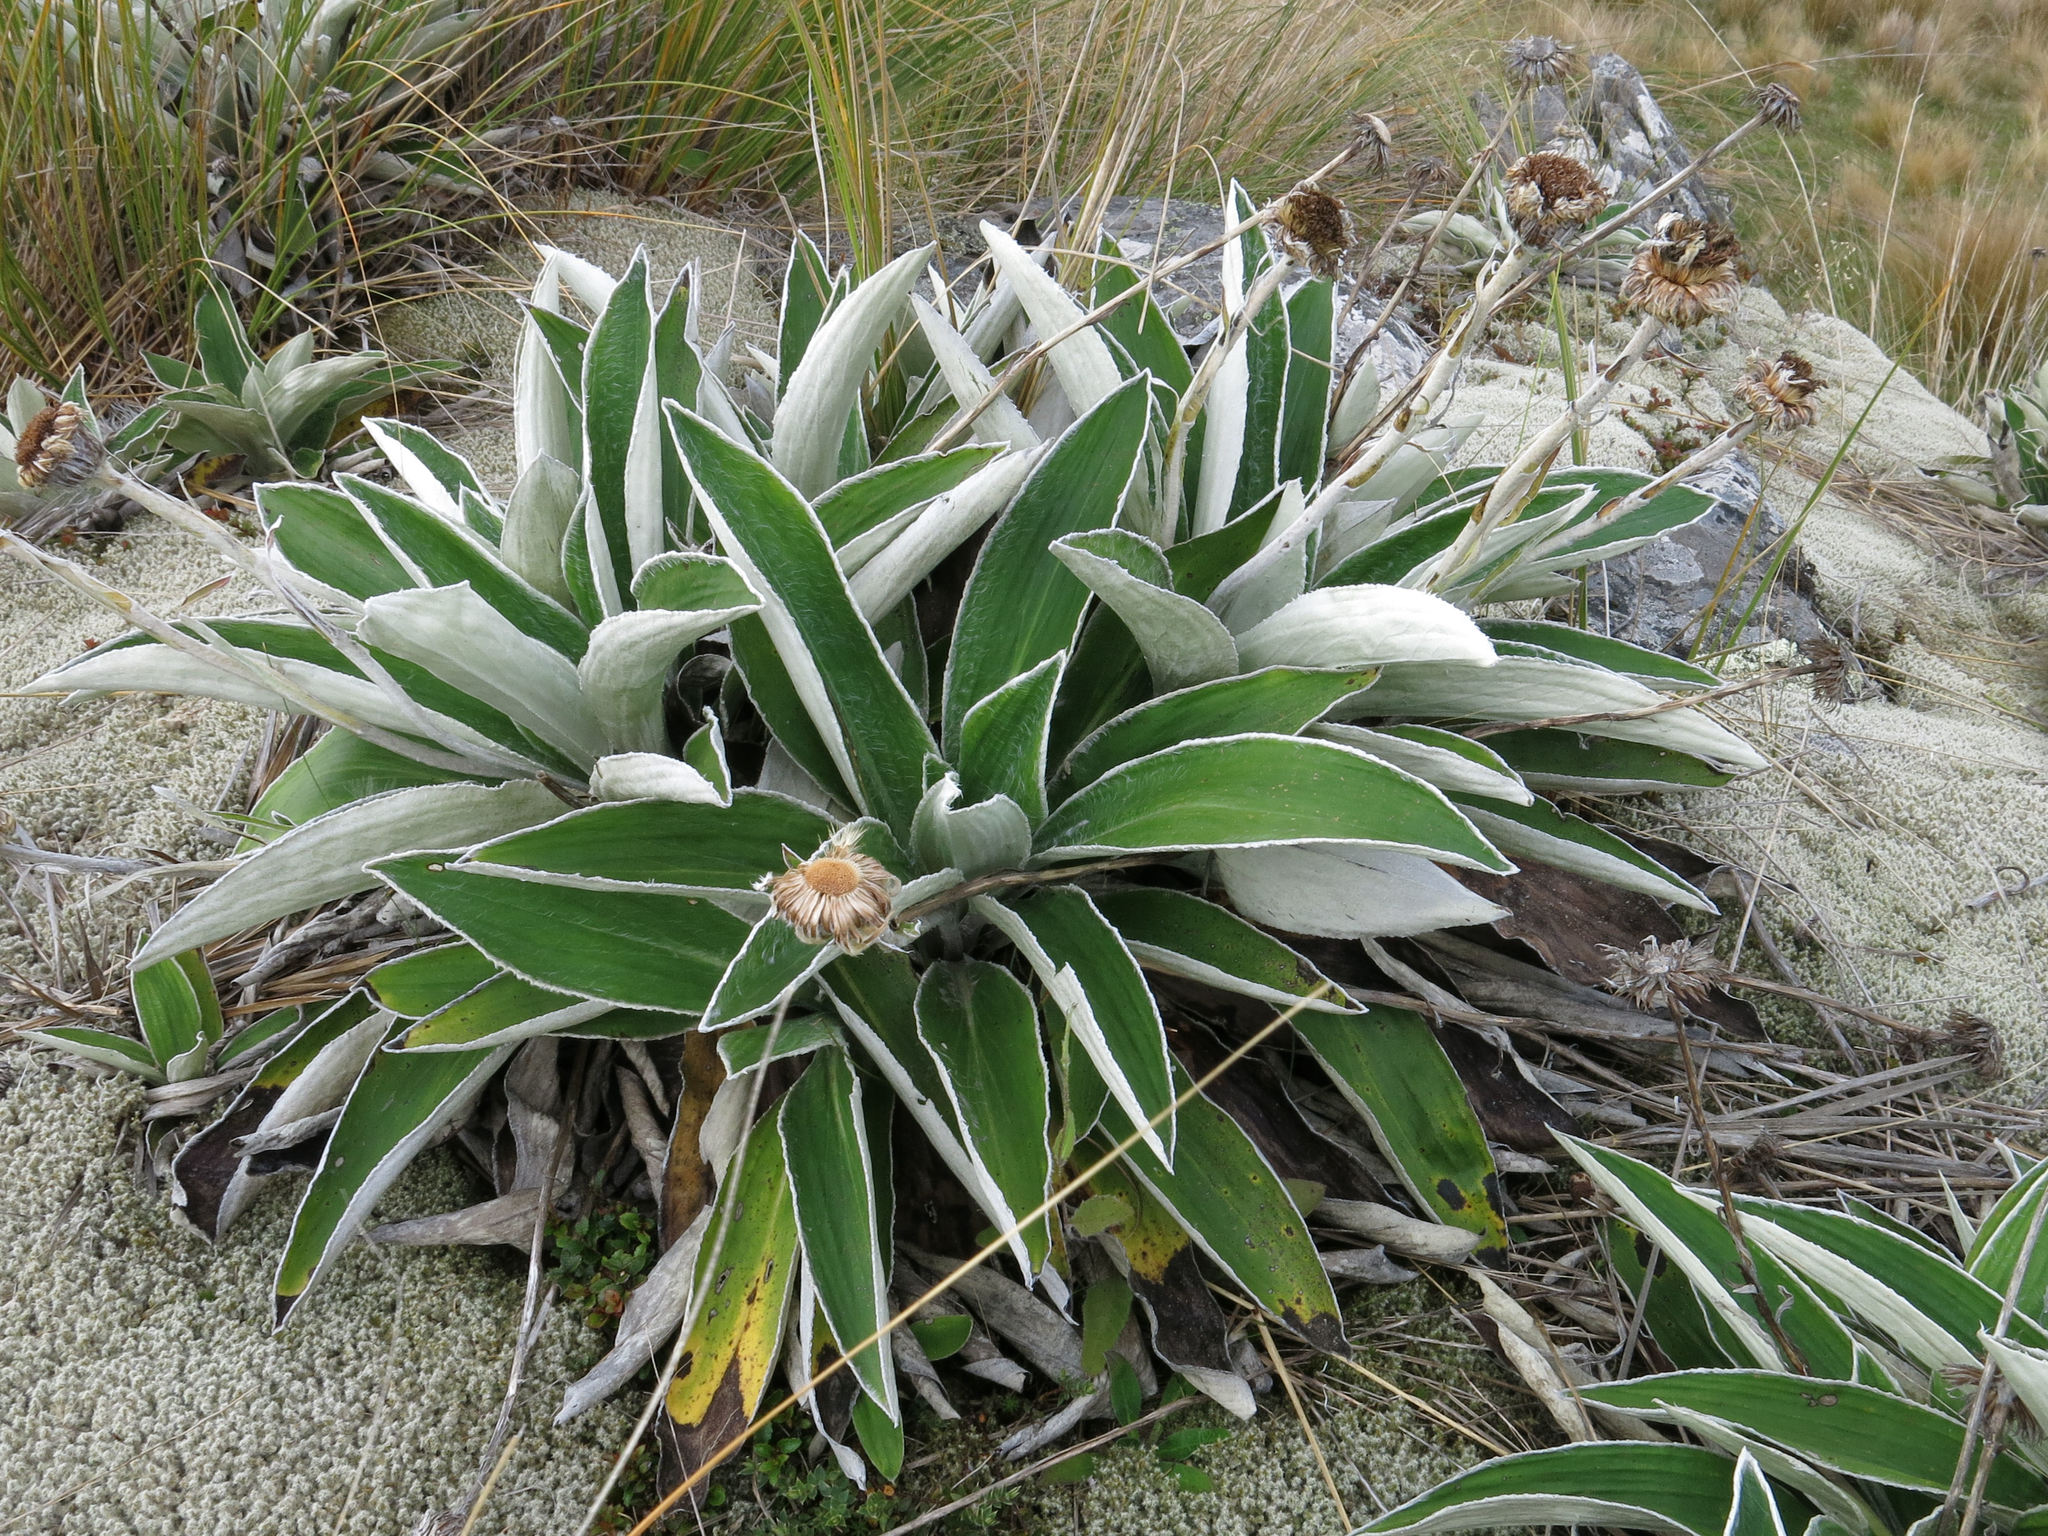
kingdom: Plantae
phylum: Tracheophyta
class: Magnoliopsida
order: Asterales
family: Asteraceae
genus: Celmisia
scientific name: Celmisia hookeri
